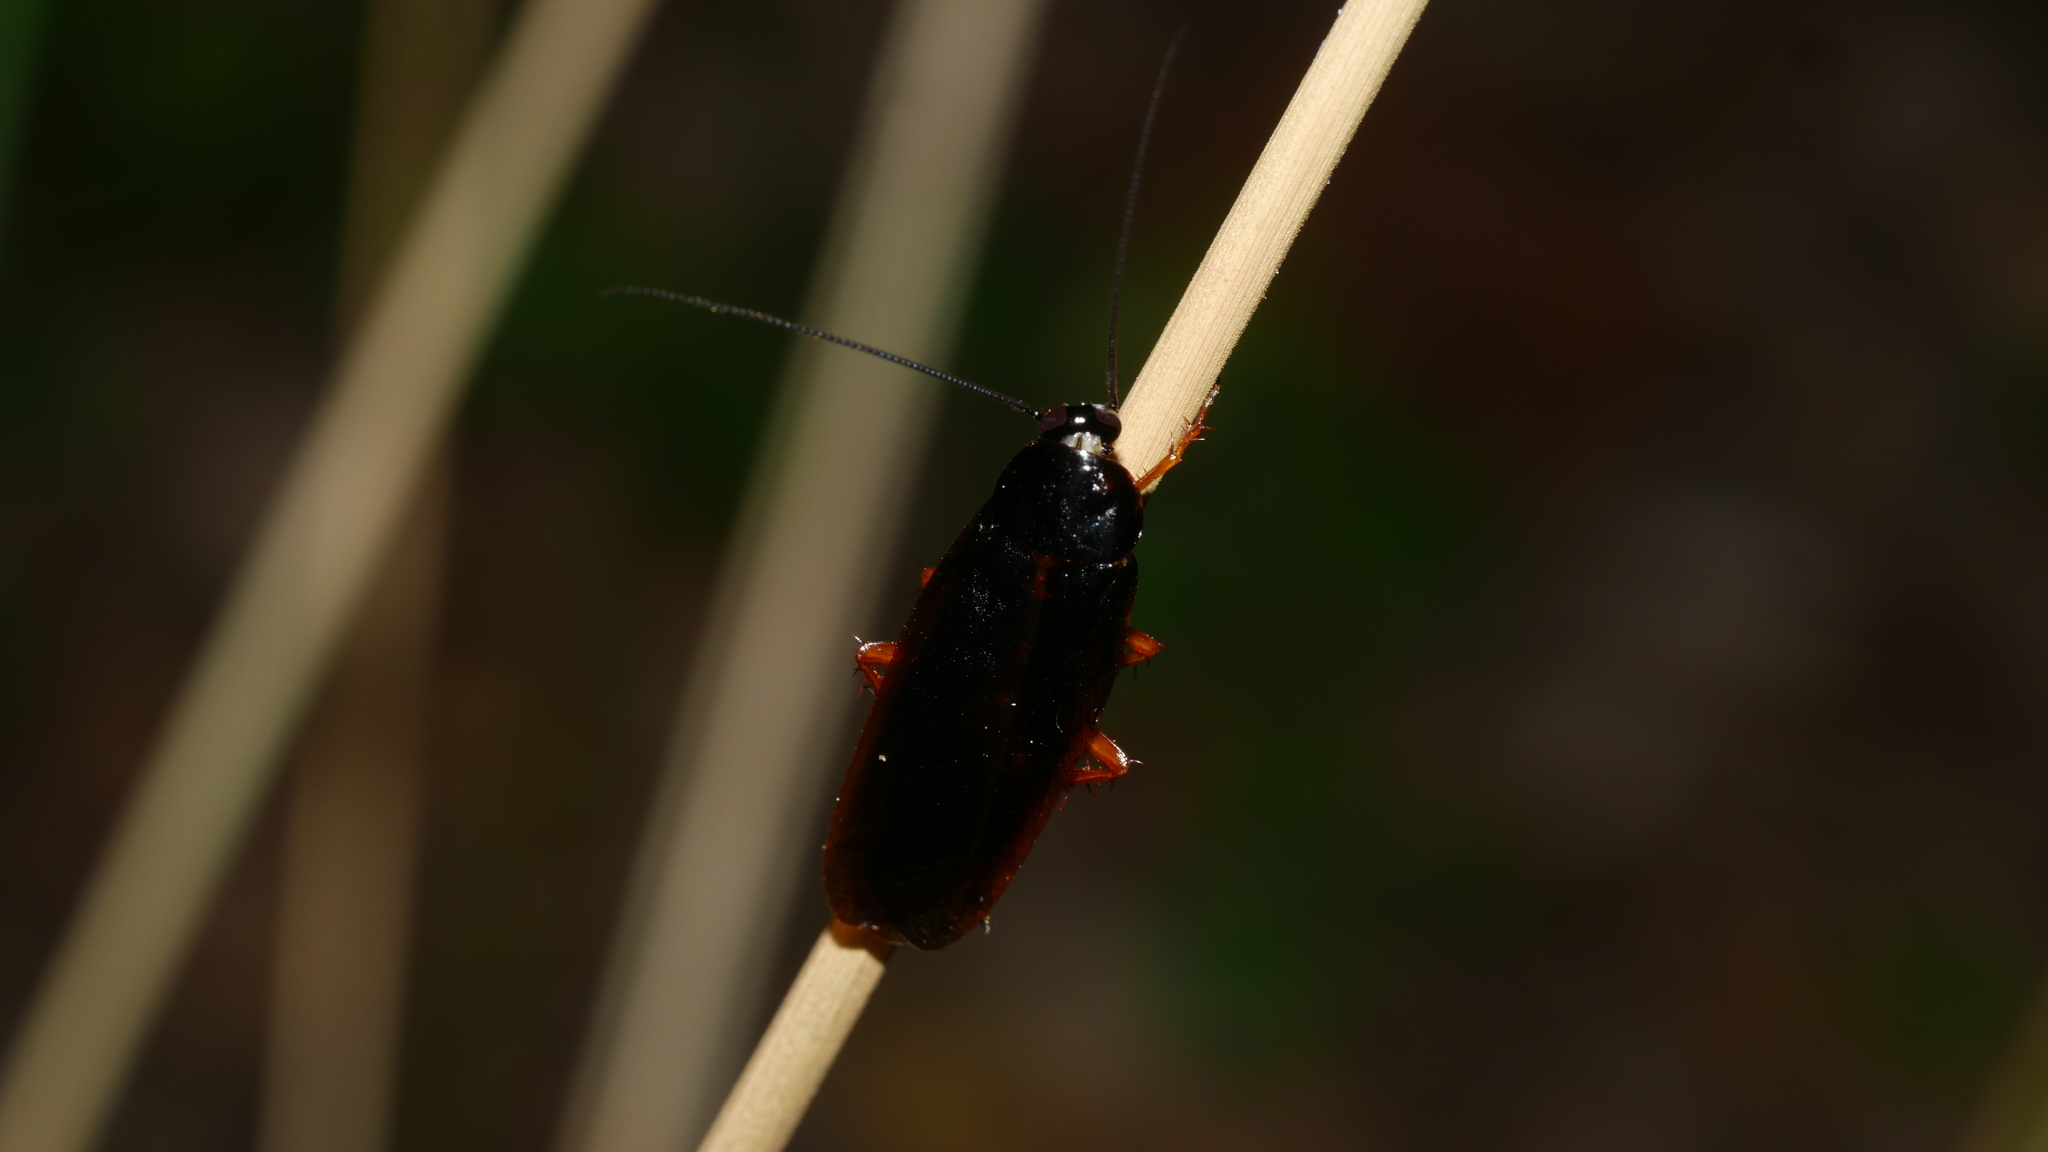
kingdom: Animalia
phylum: Arthropoda
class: Insecta
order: Blattodea
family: Ectobiidae
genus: Ischnoptera
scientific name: Ischnoptera deropeltiformis
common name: Dark wood cockroach
